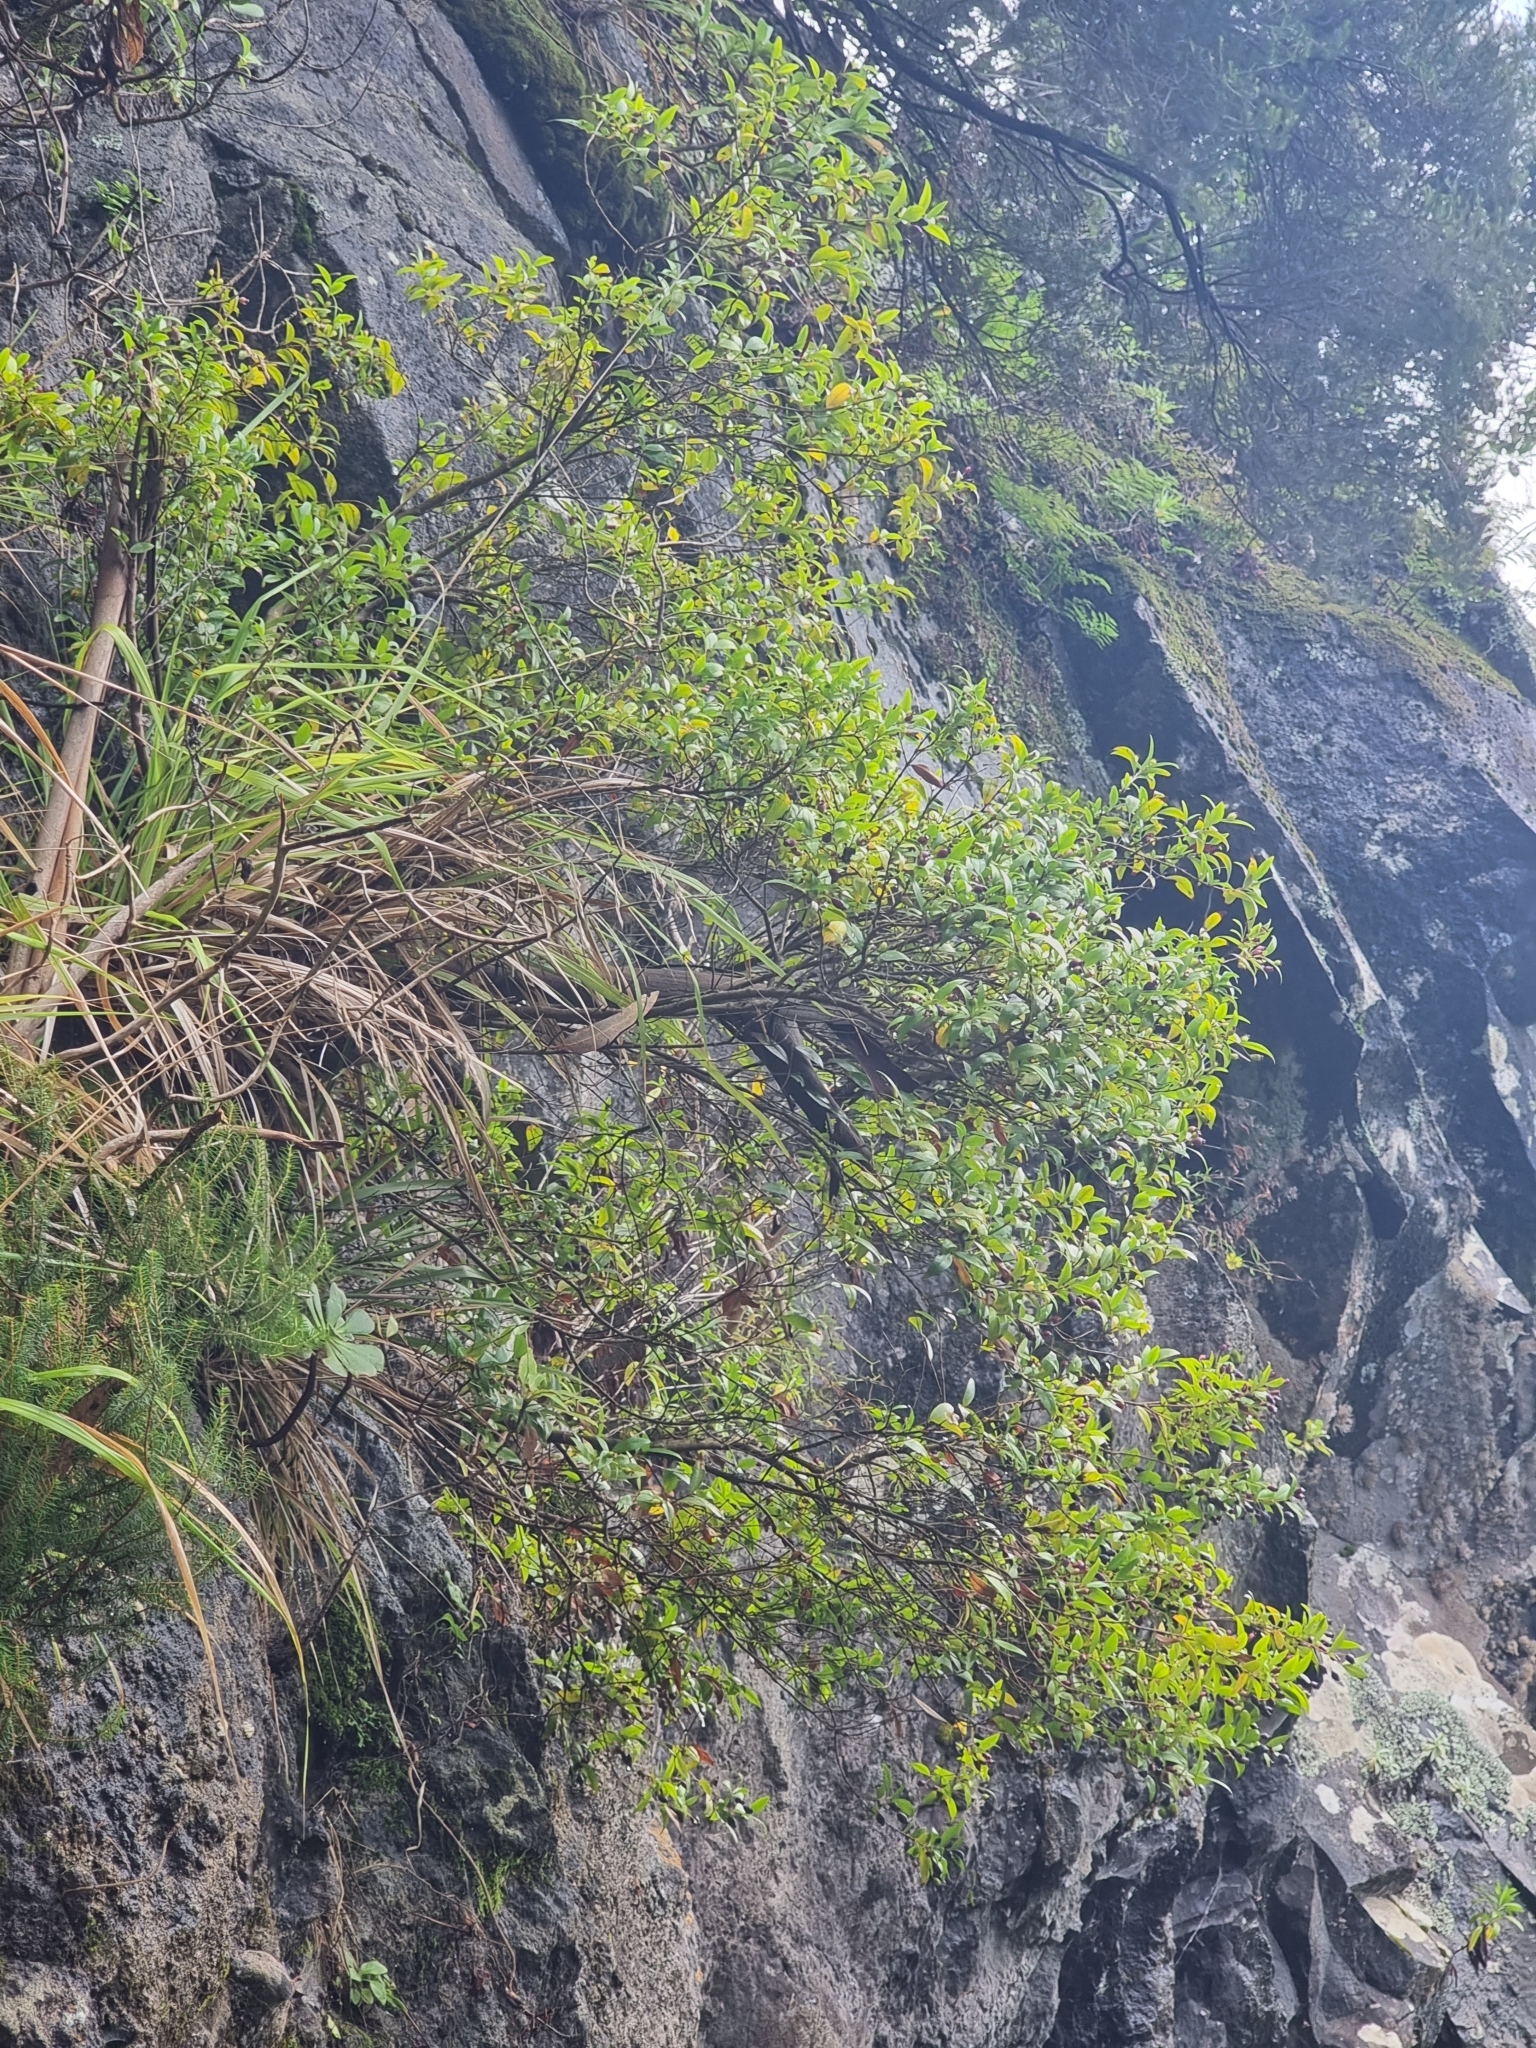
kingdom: Plantae
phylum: Tracheophyta
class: Magnoliopsida
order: Myrtales
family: Myrtaceae
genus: Myrtus
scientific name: Myrtus communis
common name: Myrtle
